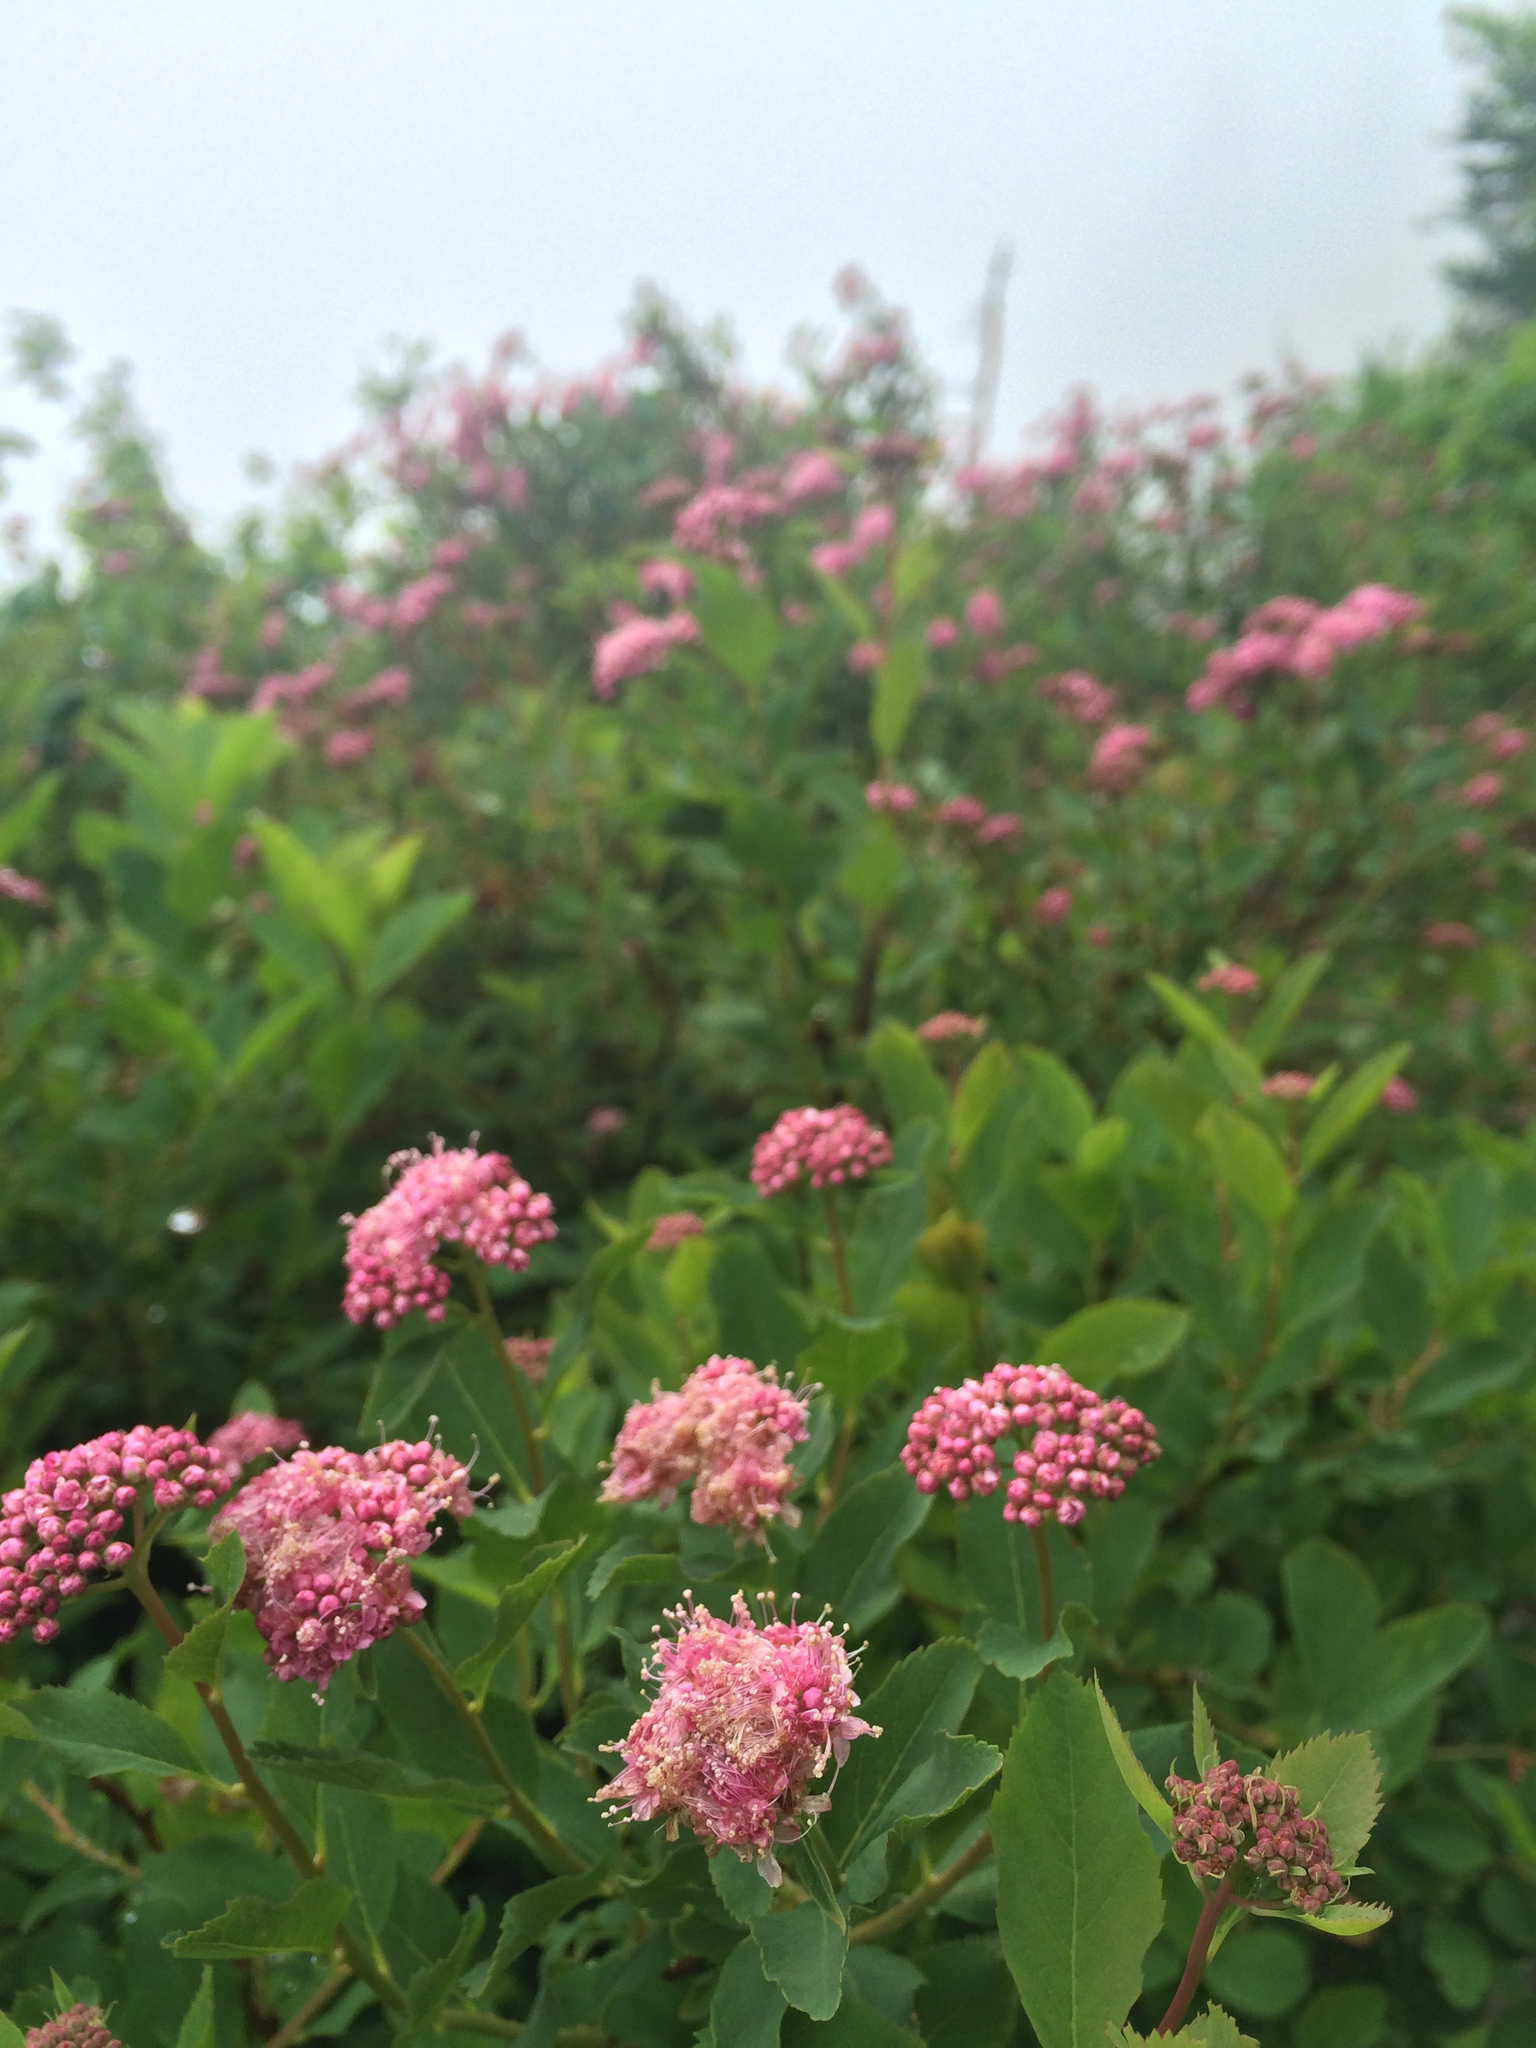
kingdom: Plantae
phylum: Tracheophyta
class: Magnoliopsida
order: Rosales
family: Rosaceae
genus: Spiraea
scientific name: Spiraea splendens
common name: Subalpine meadowsweet
